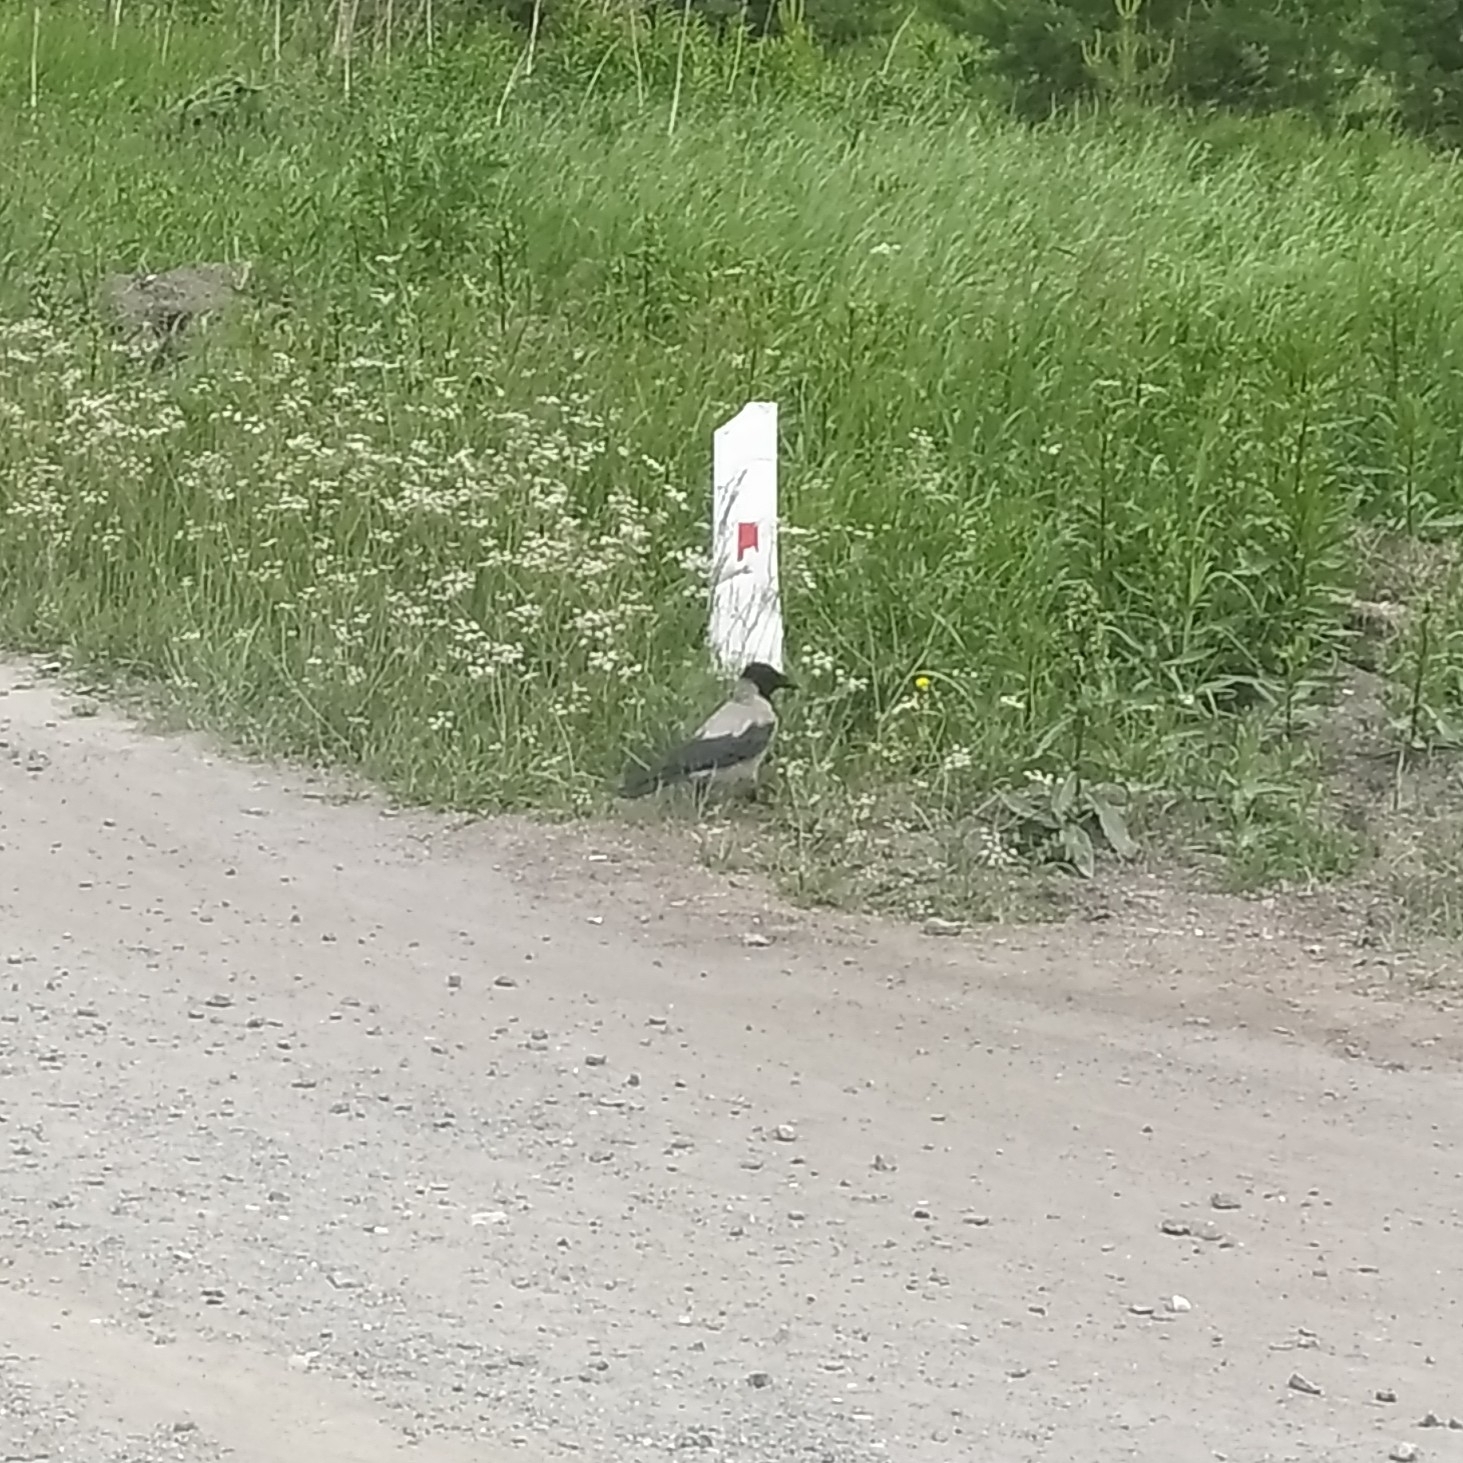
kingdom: Animalia
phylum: Chordata
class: Aves
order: Passeriformes
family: Corvidae
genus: Corvus
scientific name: Corvus cornix
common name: Hooded crow
